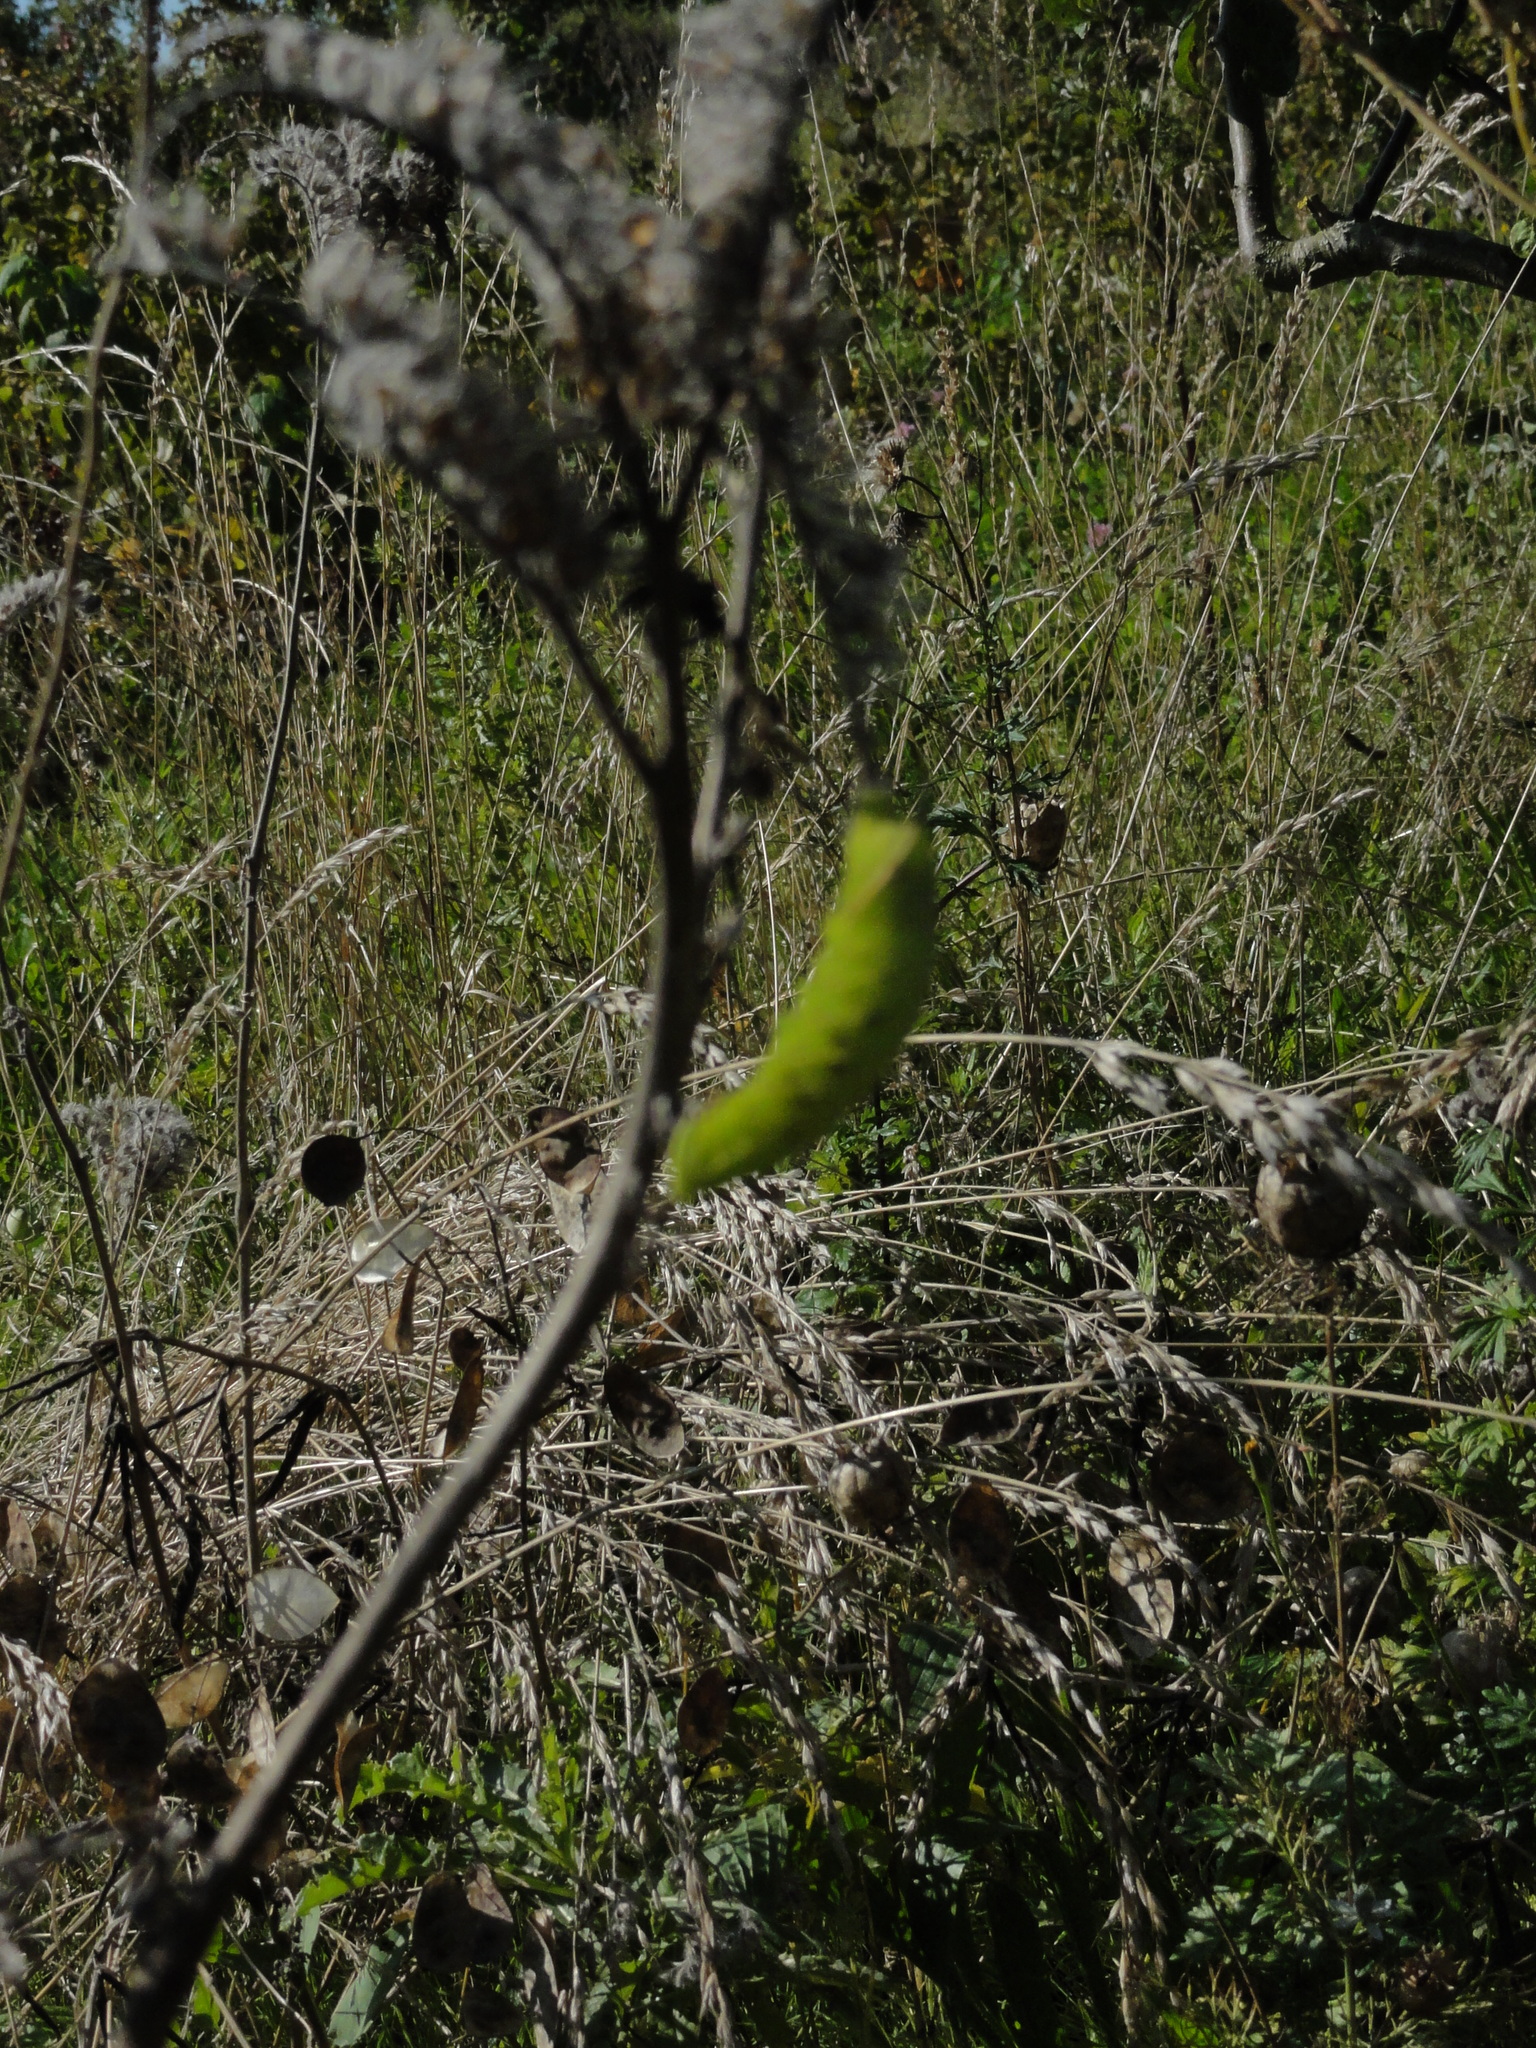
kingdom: Animalia
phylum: Arthropoda
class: Insecta
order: Lepidoptera
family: Sphingidae
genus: Smerinthus
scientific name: Smerinthus ocellata
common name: Eyed hawk-moth
